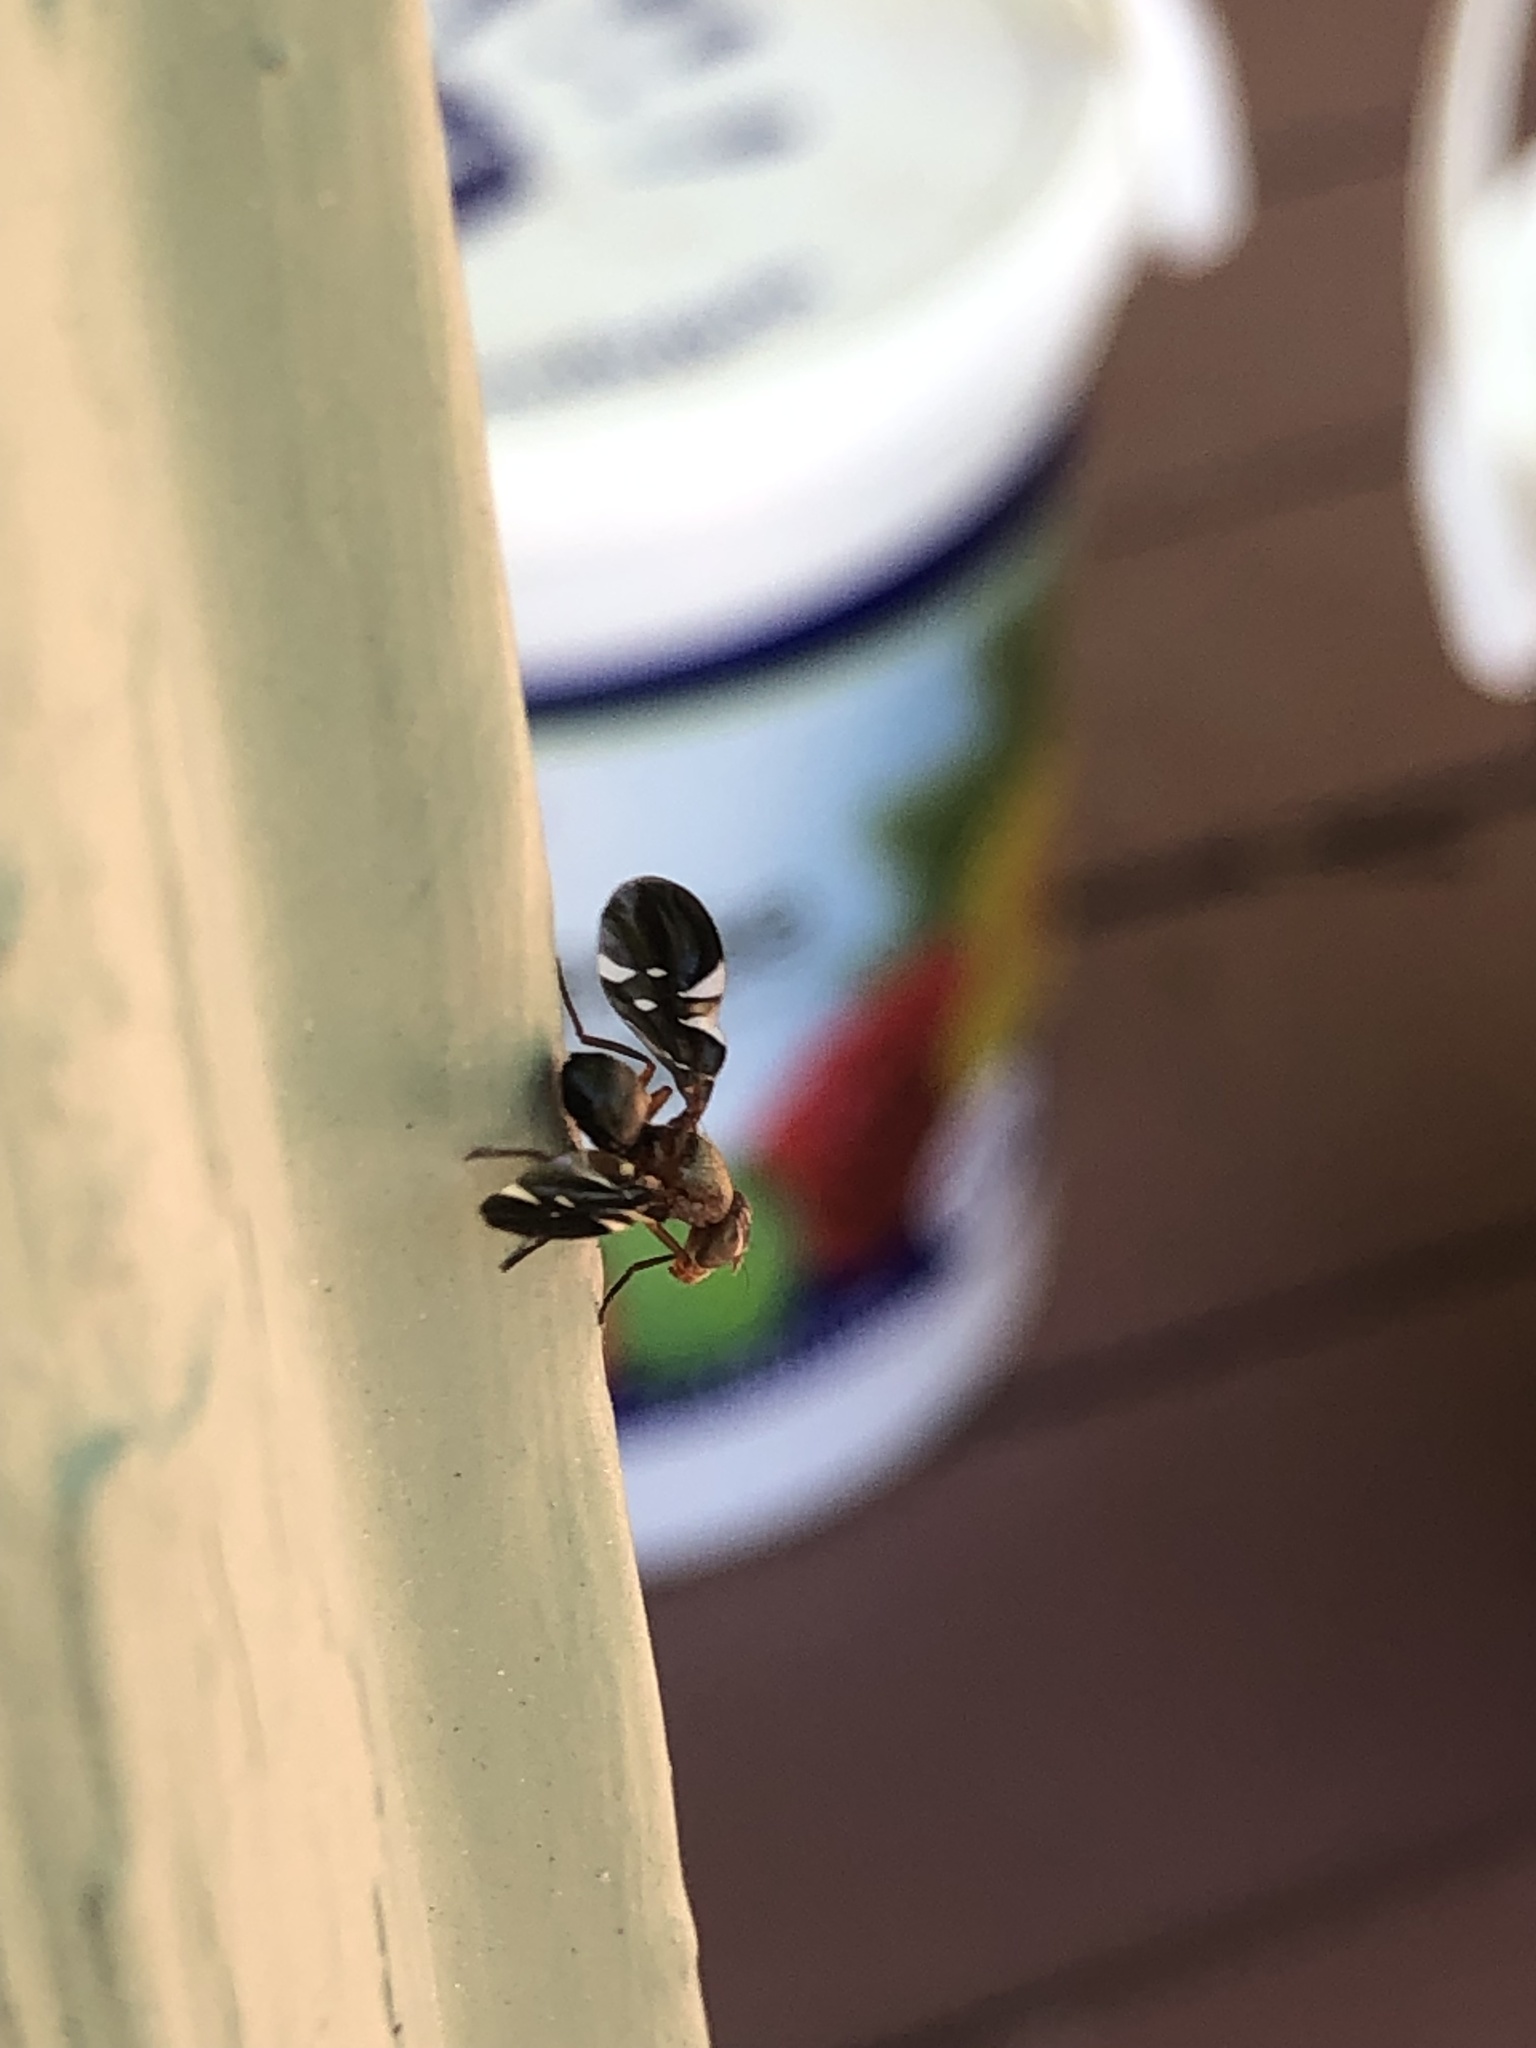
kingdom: Animalia
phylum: Arthropoda
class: Insecta
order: Diptera
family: Ulidiidae
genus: Delphinia
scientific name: Delphinia picta
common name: Common picture-winged fly
